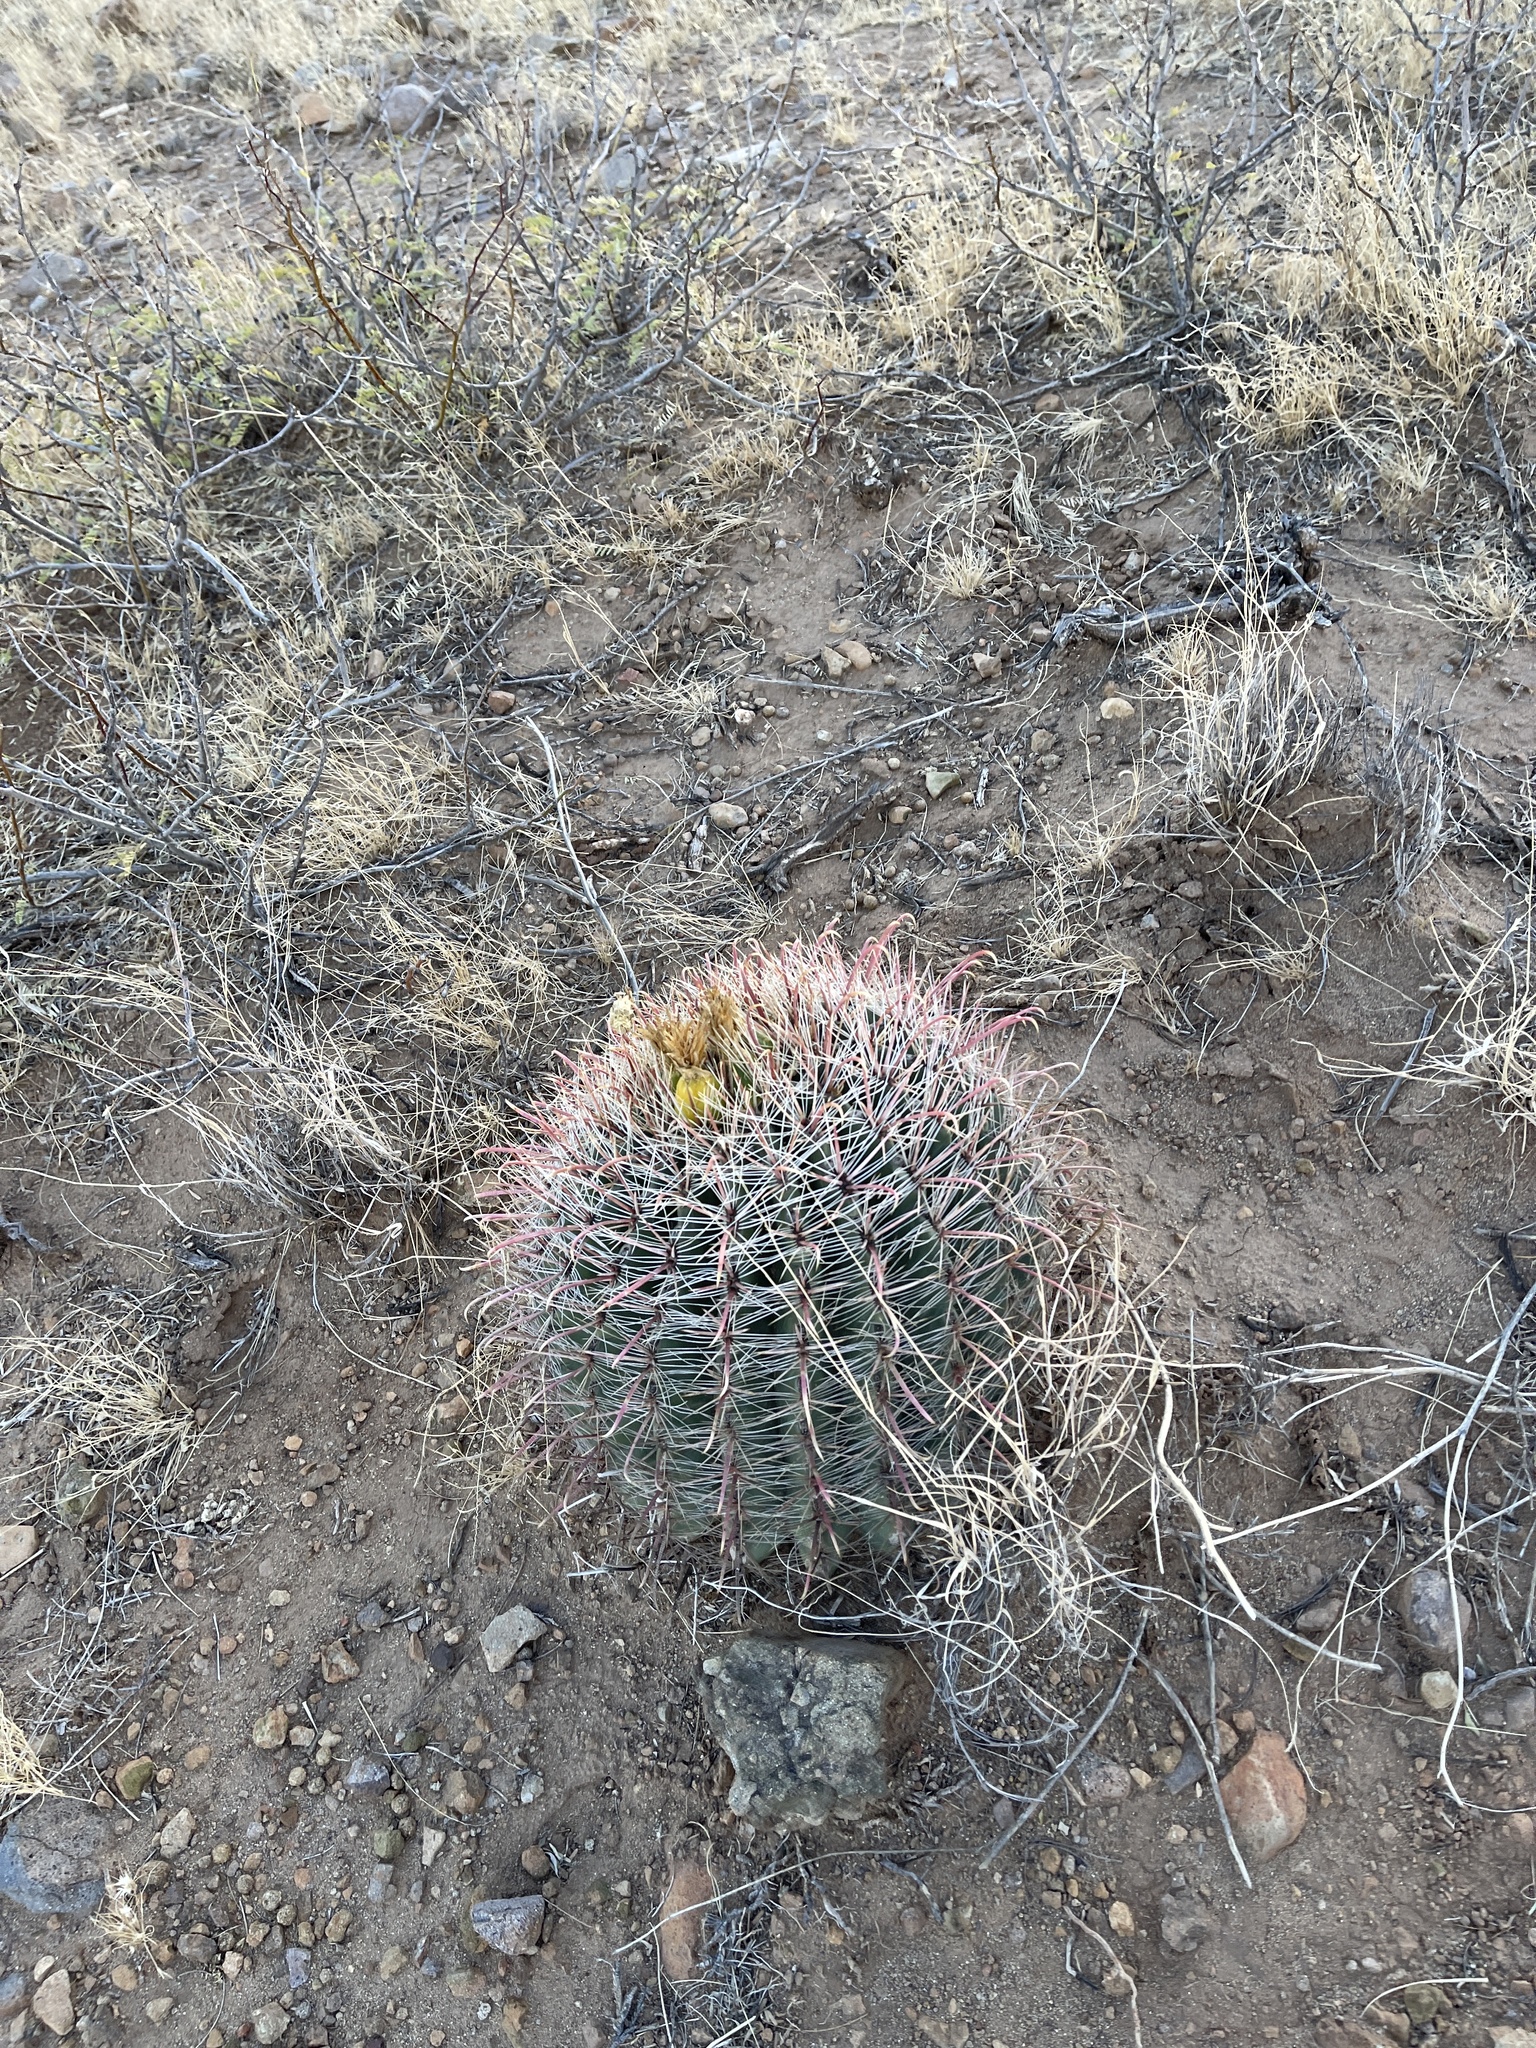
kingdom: Plantae
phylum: Tracheophyta
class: Magnoliopsida
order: Caryophyllales
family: Cactaceae
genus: Ferocactus
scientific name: Ferocactus wislizeni
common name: Candy barrel cactus
